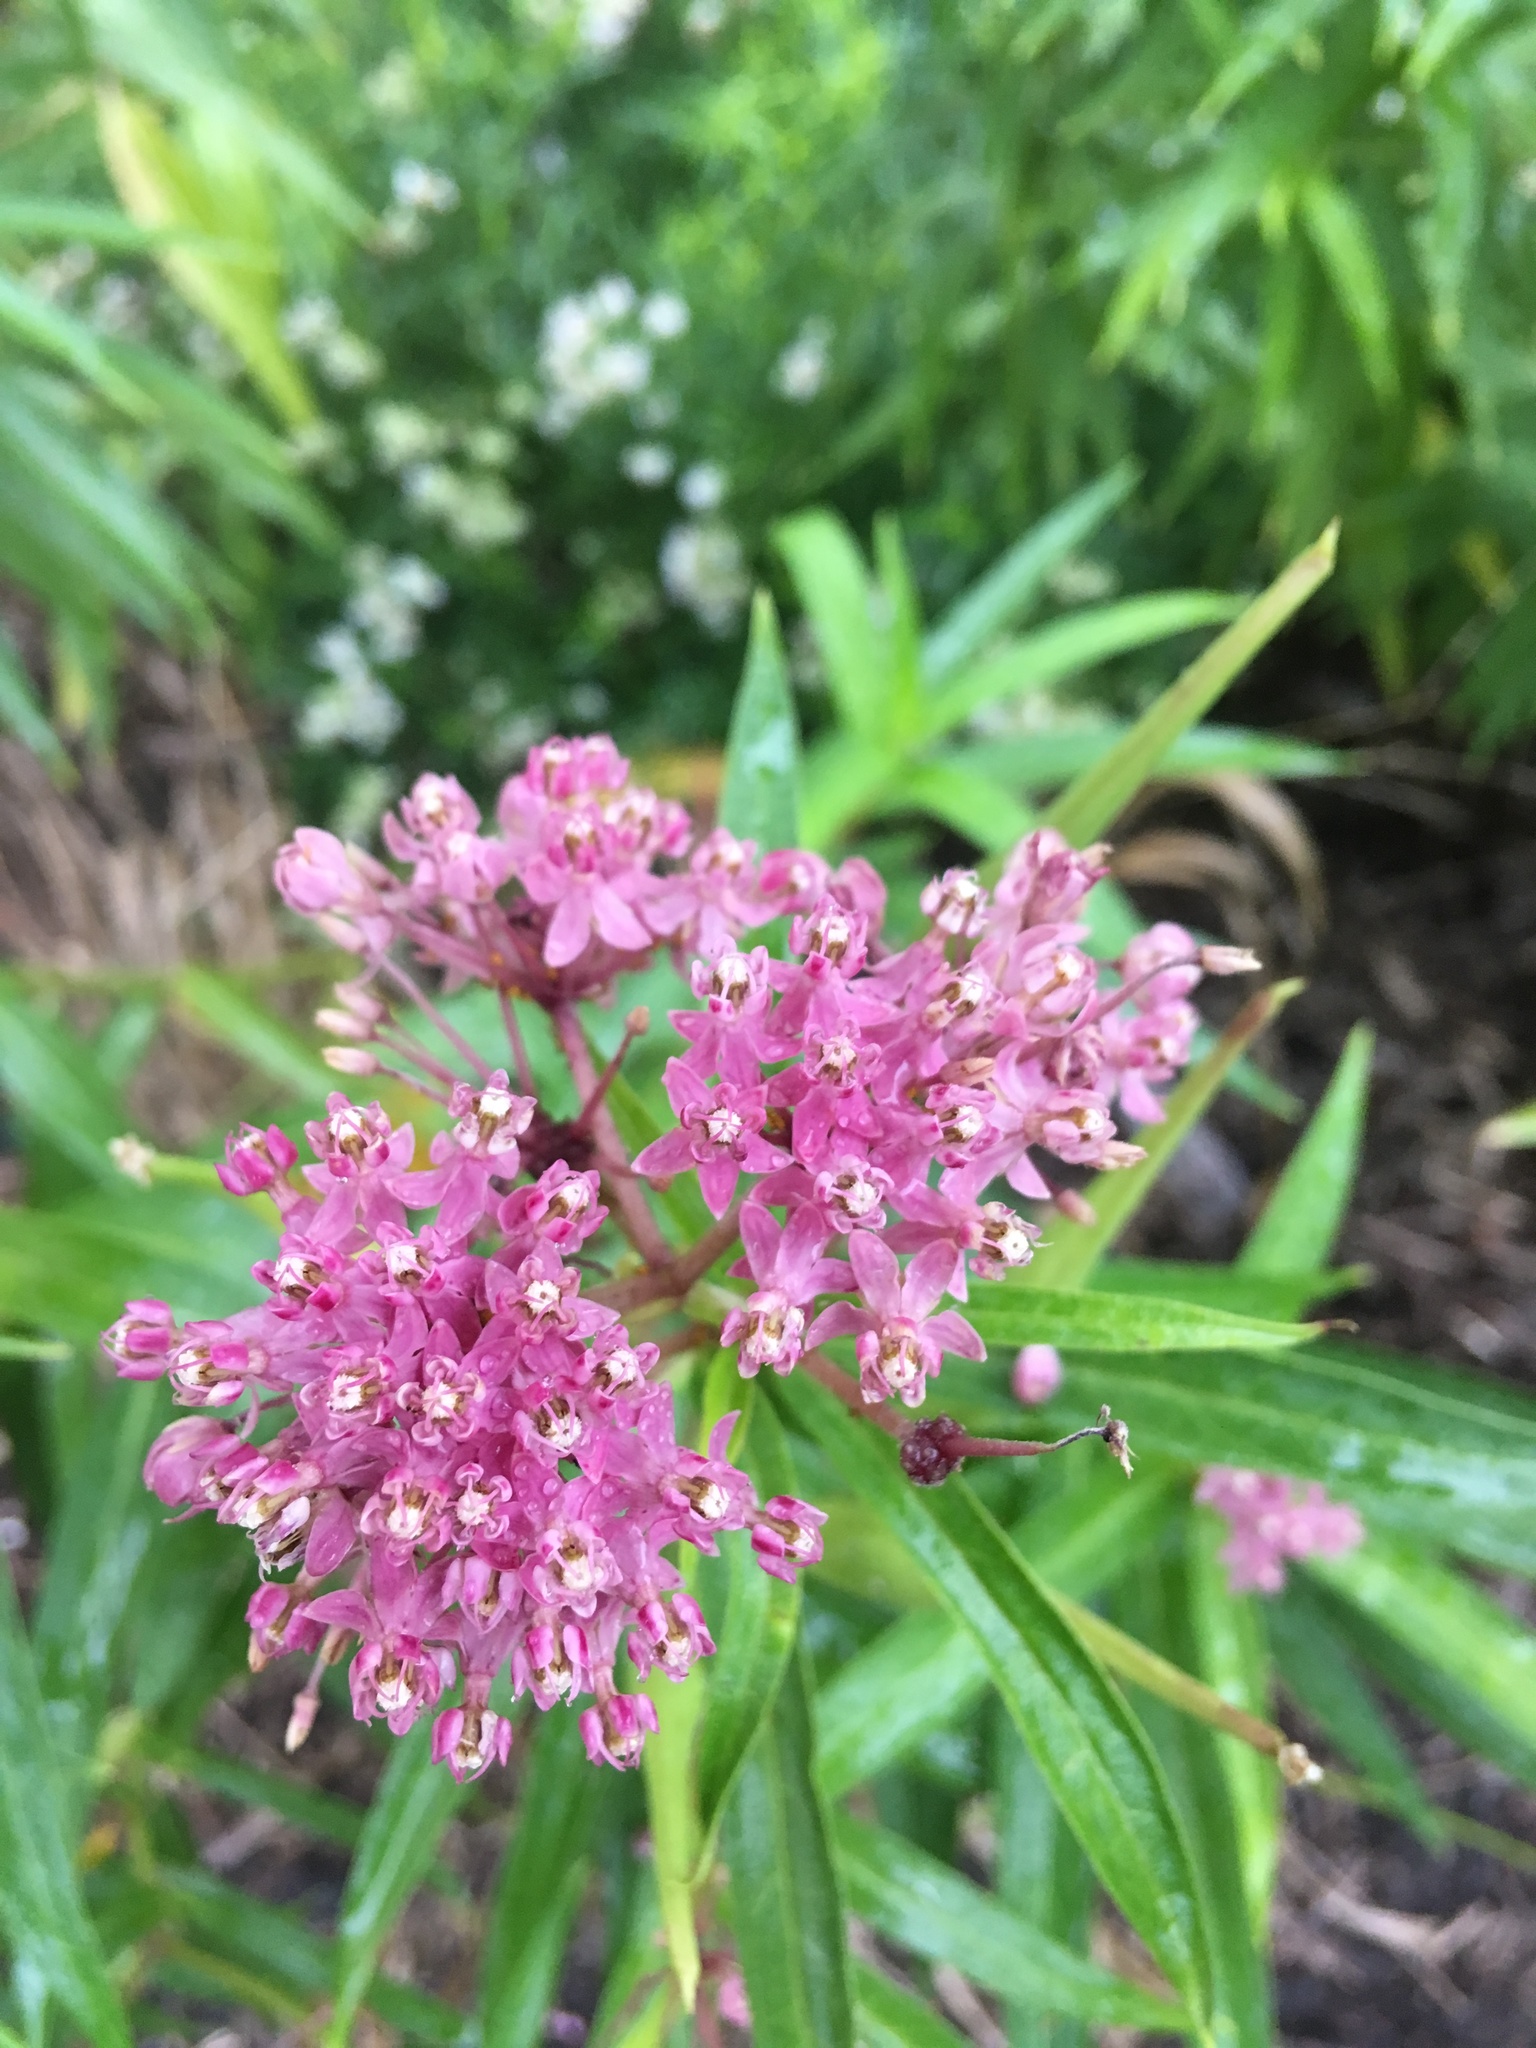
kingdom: Plantae
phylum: Tracheophyta
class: Magnoliopsida
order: Gentianales
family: Apocynaceae
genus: Asclepias
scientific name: Asclepias incarnata
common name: Swamp milkweed
